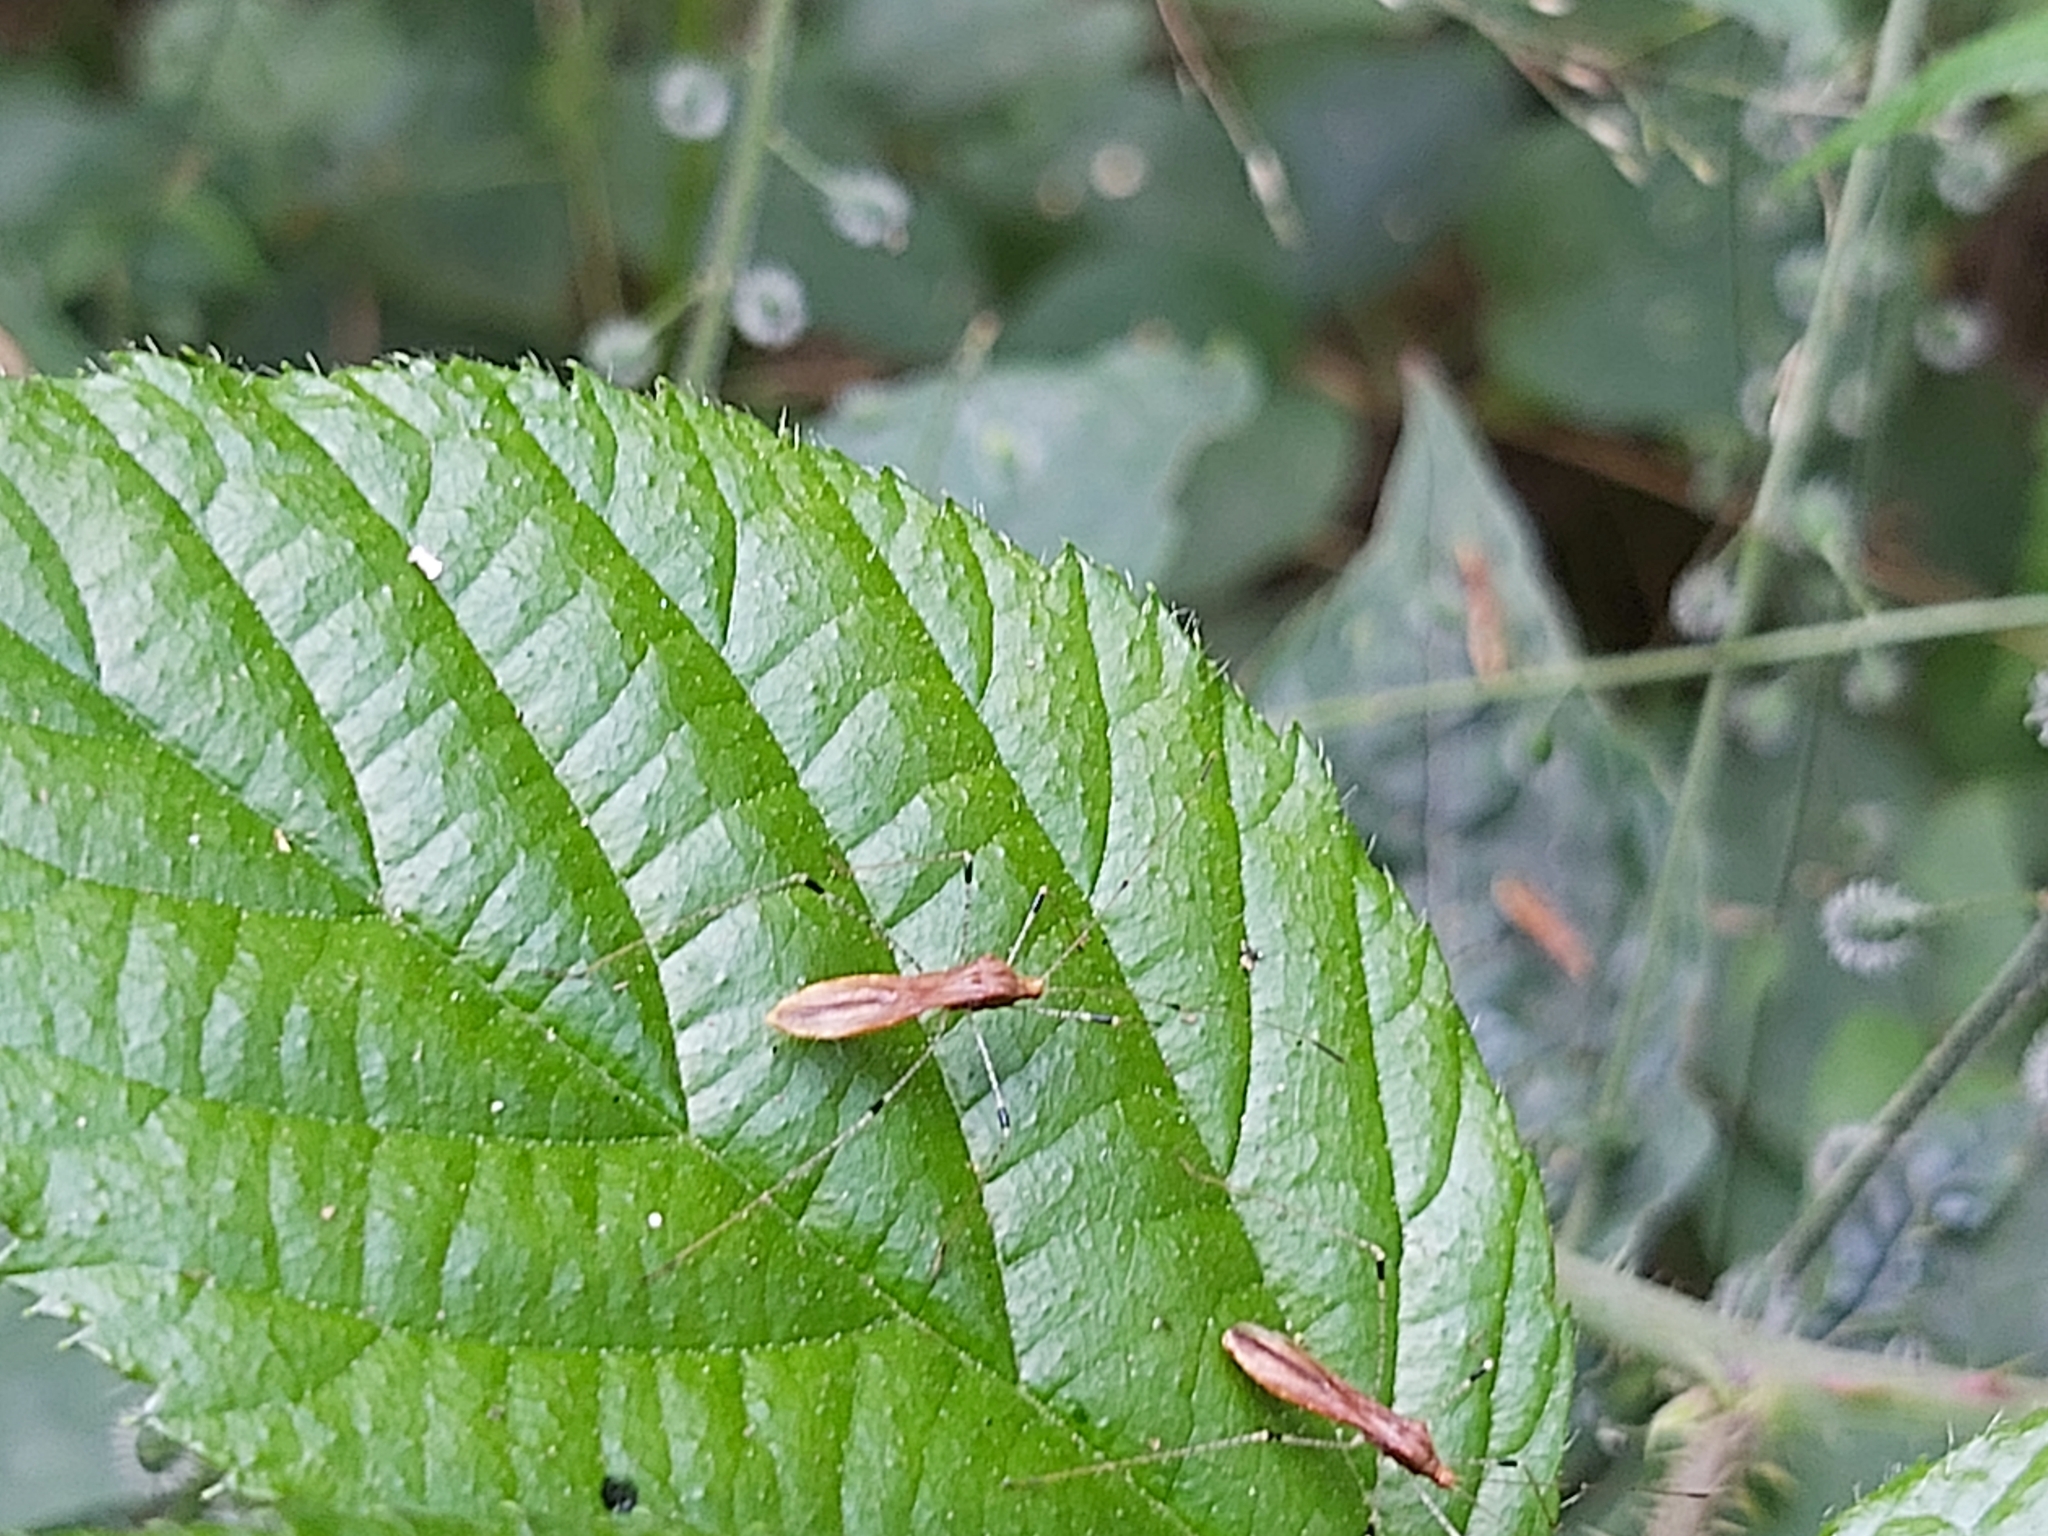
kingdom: Animalia
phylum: Arthropoda
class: Insecta
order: Hemiptera
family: Berytidae
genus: Metatropis
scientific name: Metatropis rufescens
